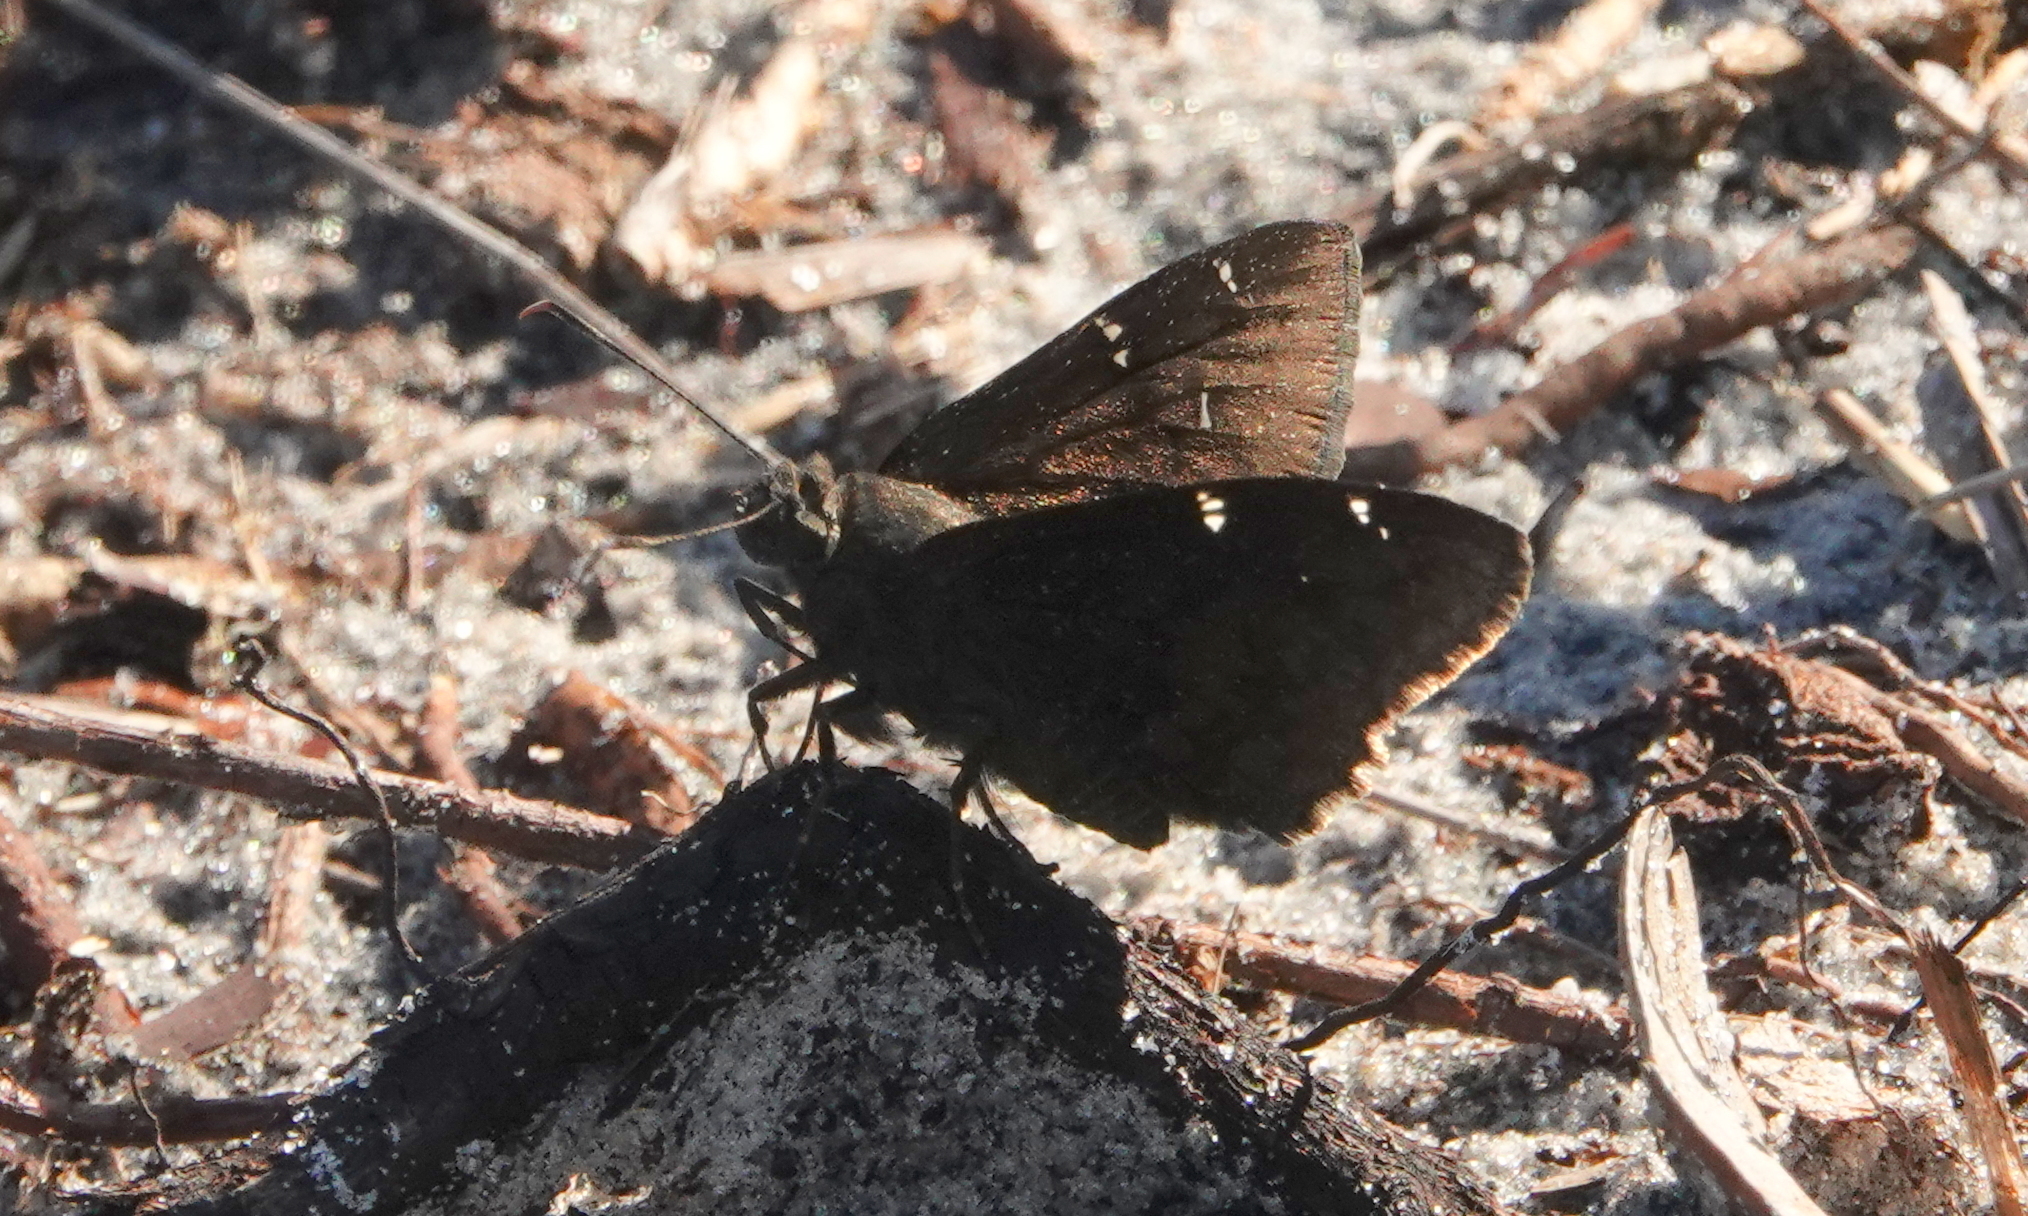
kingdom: Animalia
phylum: Arthropoda
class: Insecta
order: Lepidoptera
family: Hesperiidae
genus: Thorybes
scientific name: Thorybes pylades
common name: Northern cloudywing
